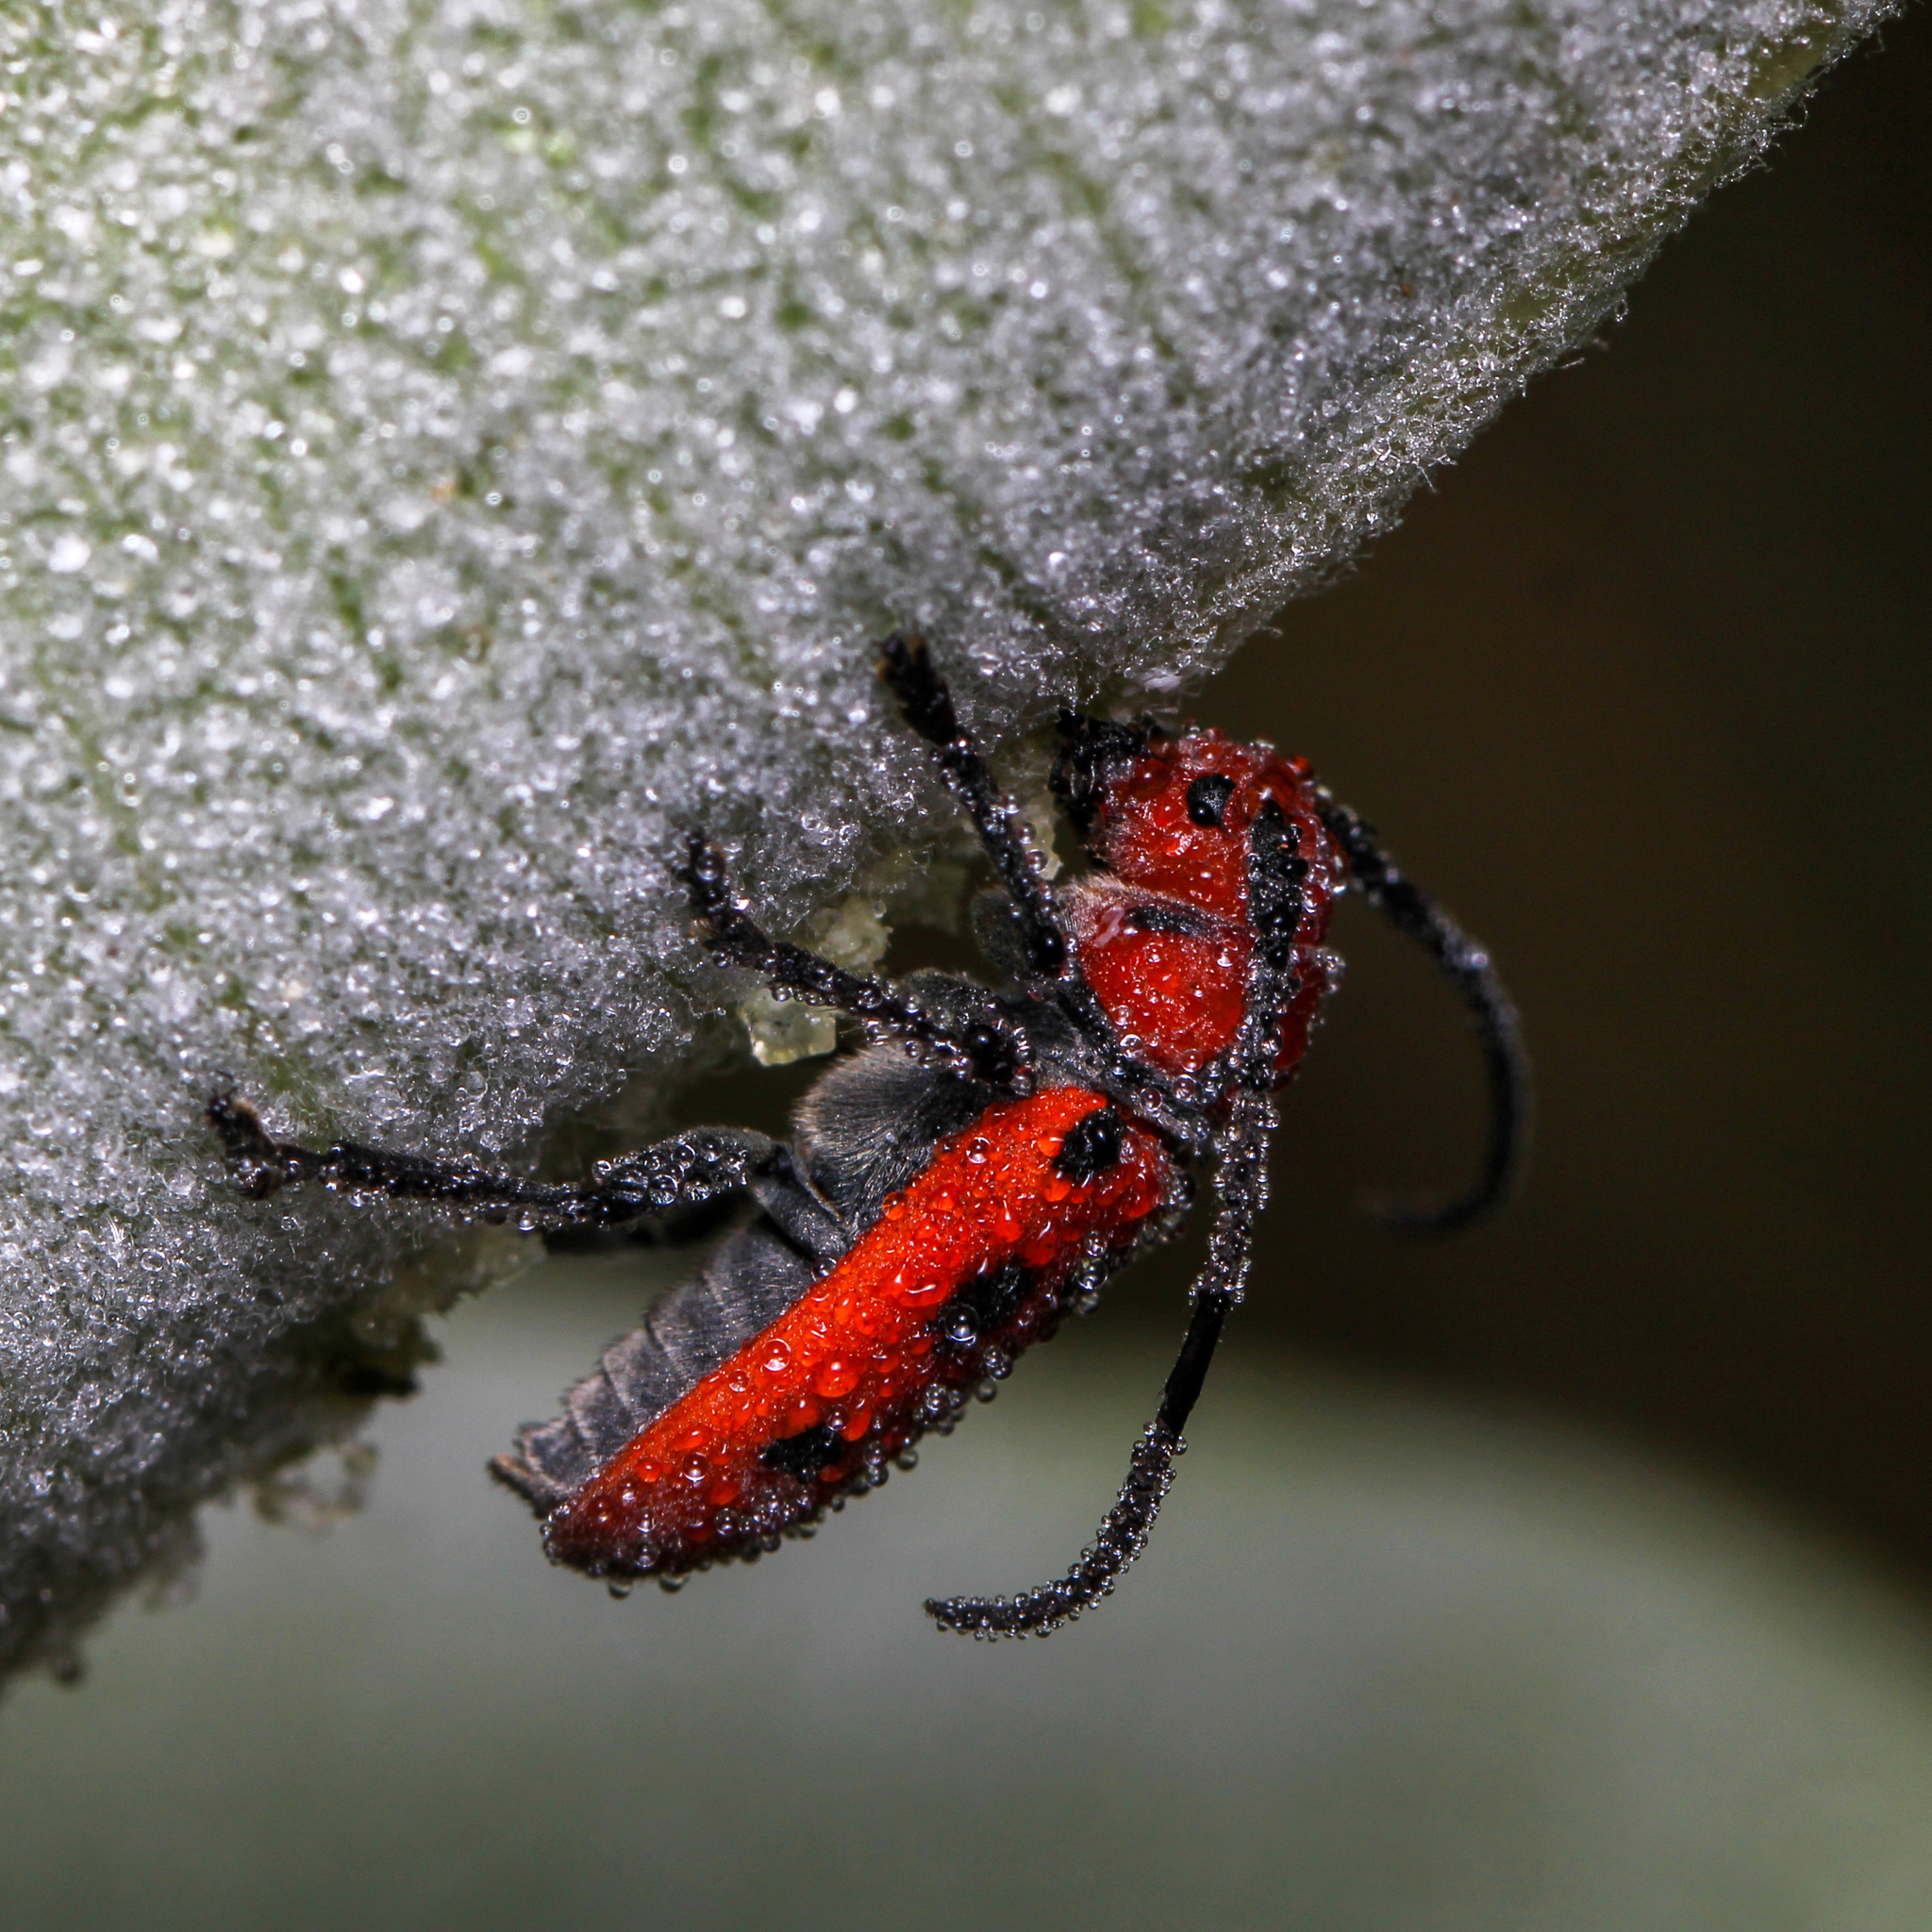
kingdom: Animalia
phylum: Arthropoda
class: Insecta
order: Coleoptera
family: Cerambycidae
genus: Tetraopes
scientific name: Tetraopes tetrophthalmus
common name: Red milkweed beetle
